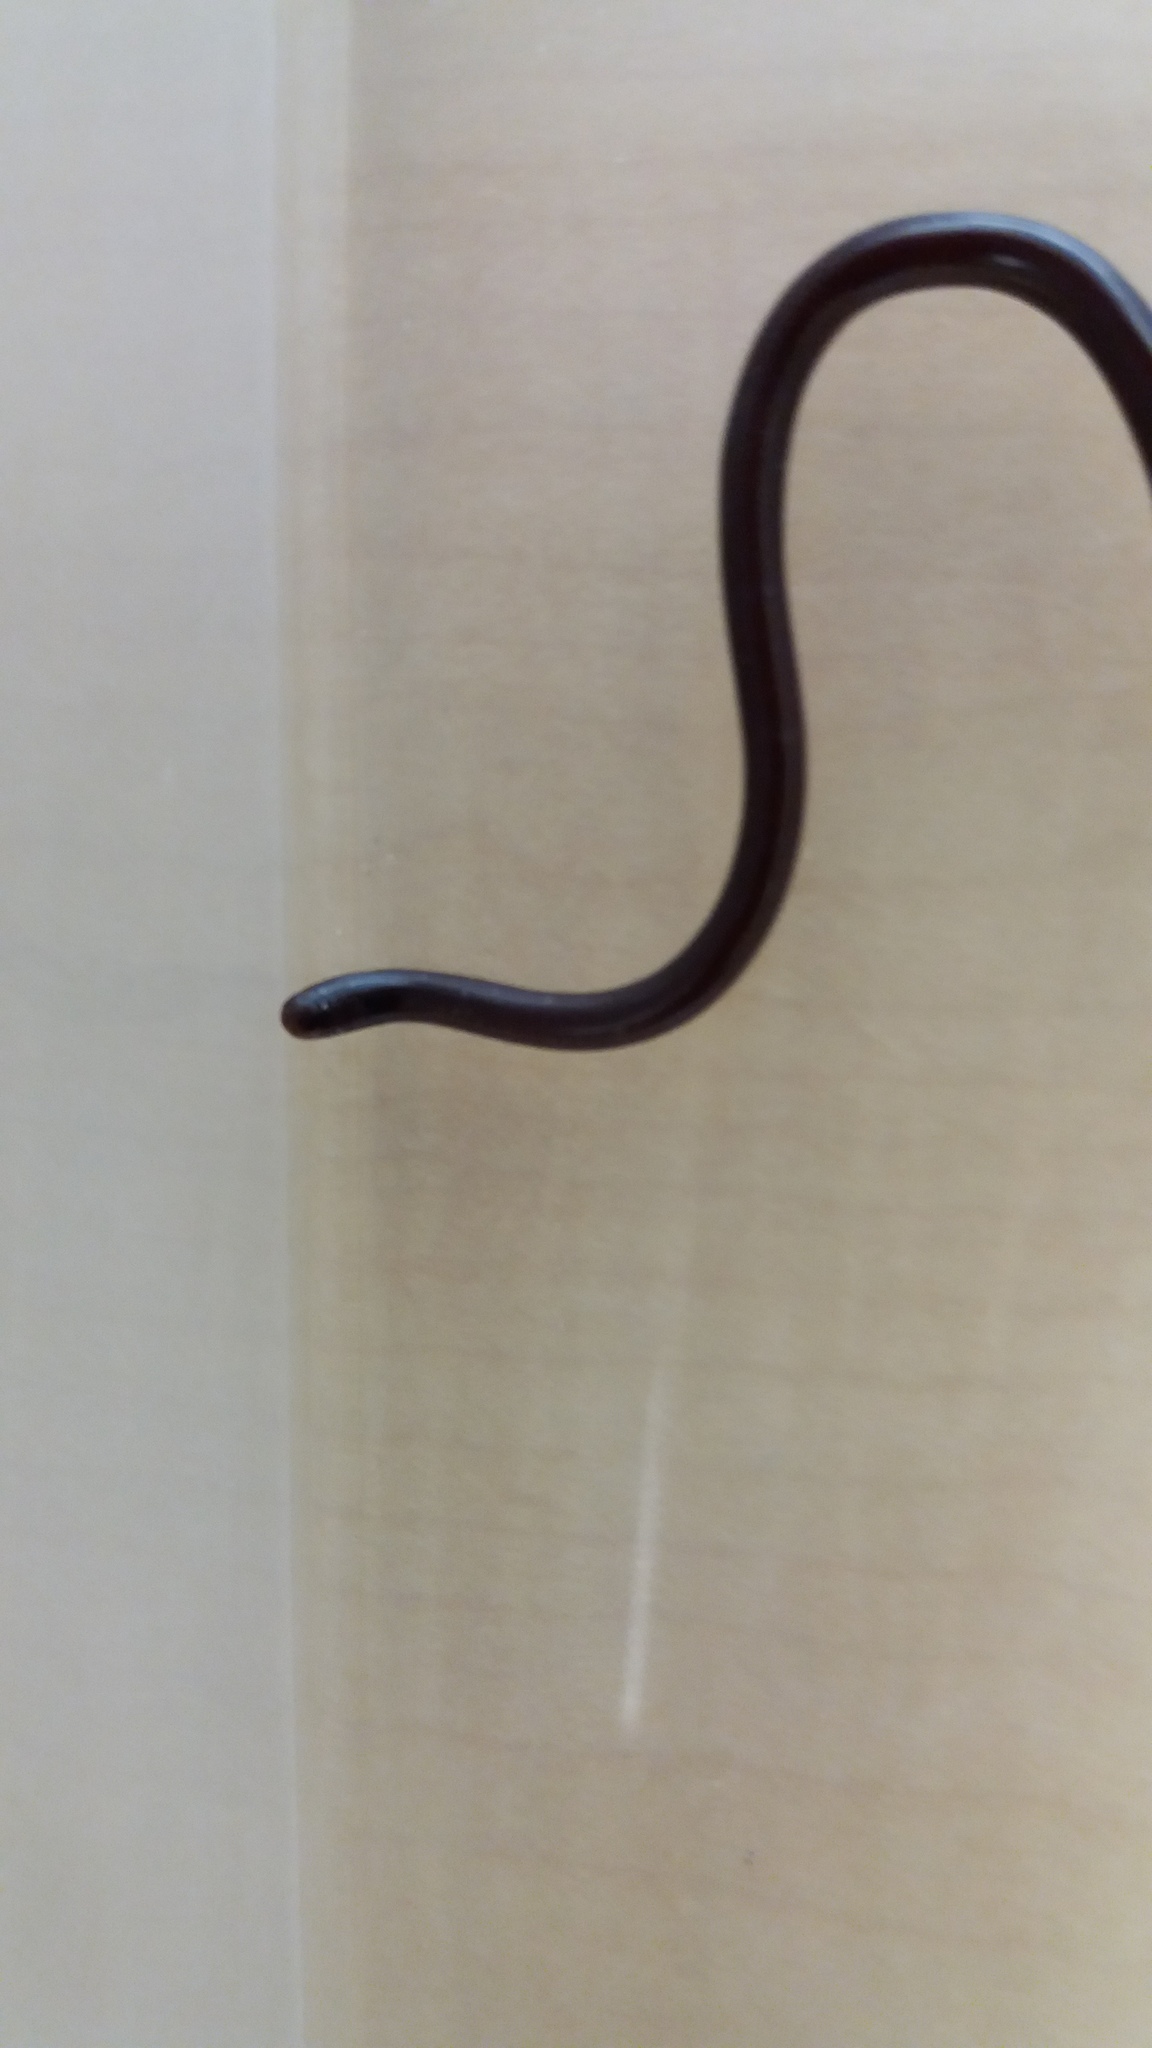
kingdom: Animalia
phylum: Chordata
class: Squamata
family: Typhlopidae
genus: Indotyphlops
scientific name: Indotyphlops braminus
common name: Brahminy blindsnake
